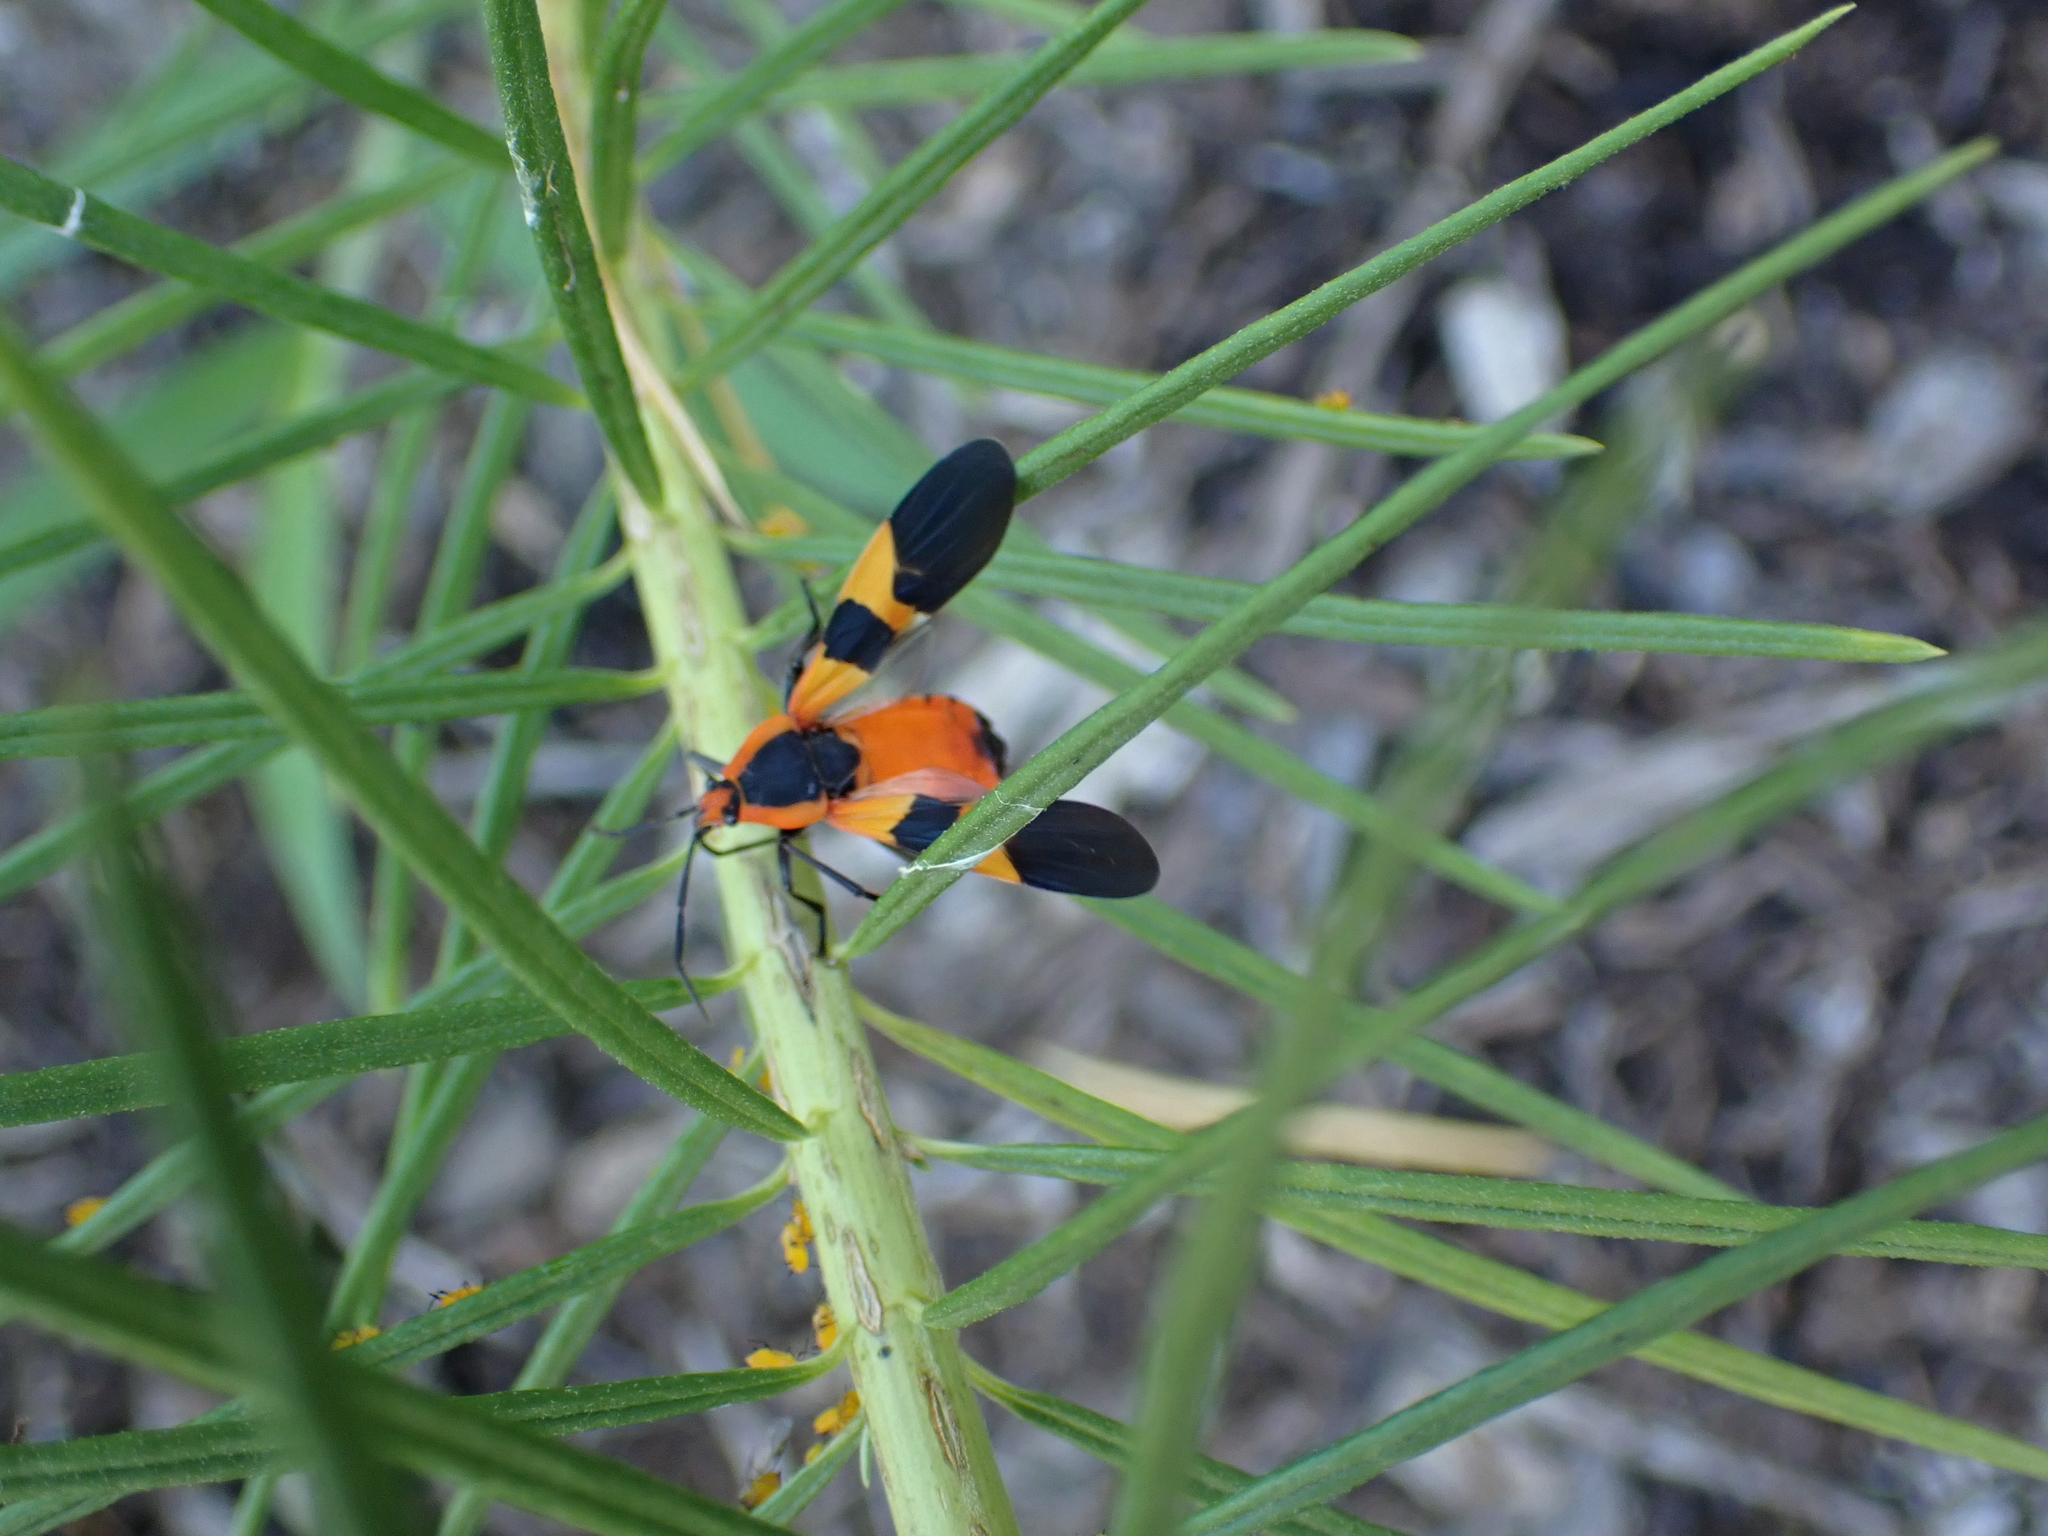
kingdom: Animalia
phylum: Arthropoda
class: Insecta
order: Hemiptera
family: Lygaeidae
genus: Oncopeltus
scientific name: Oncopeltus fasciatus
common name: Large milkweed bug
